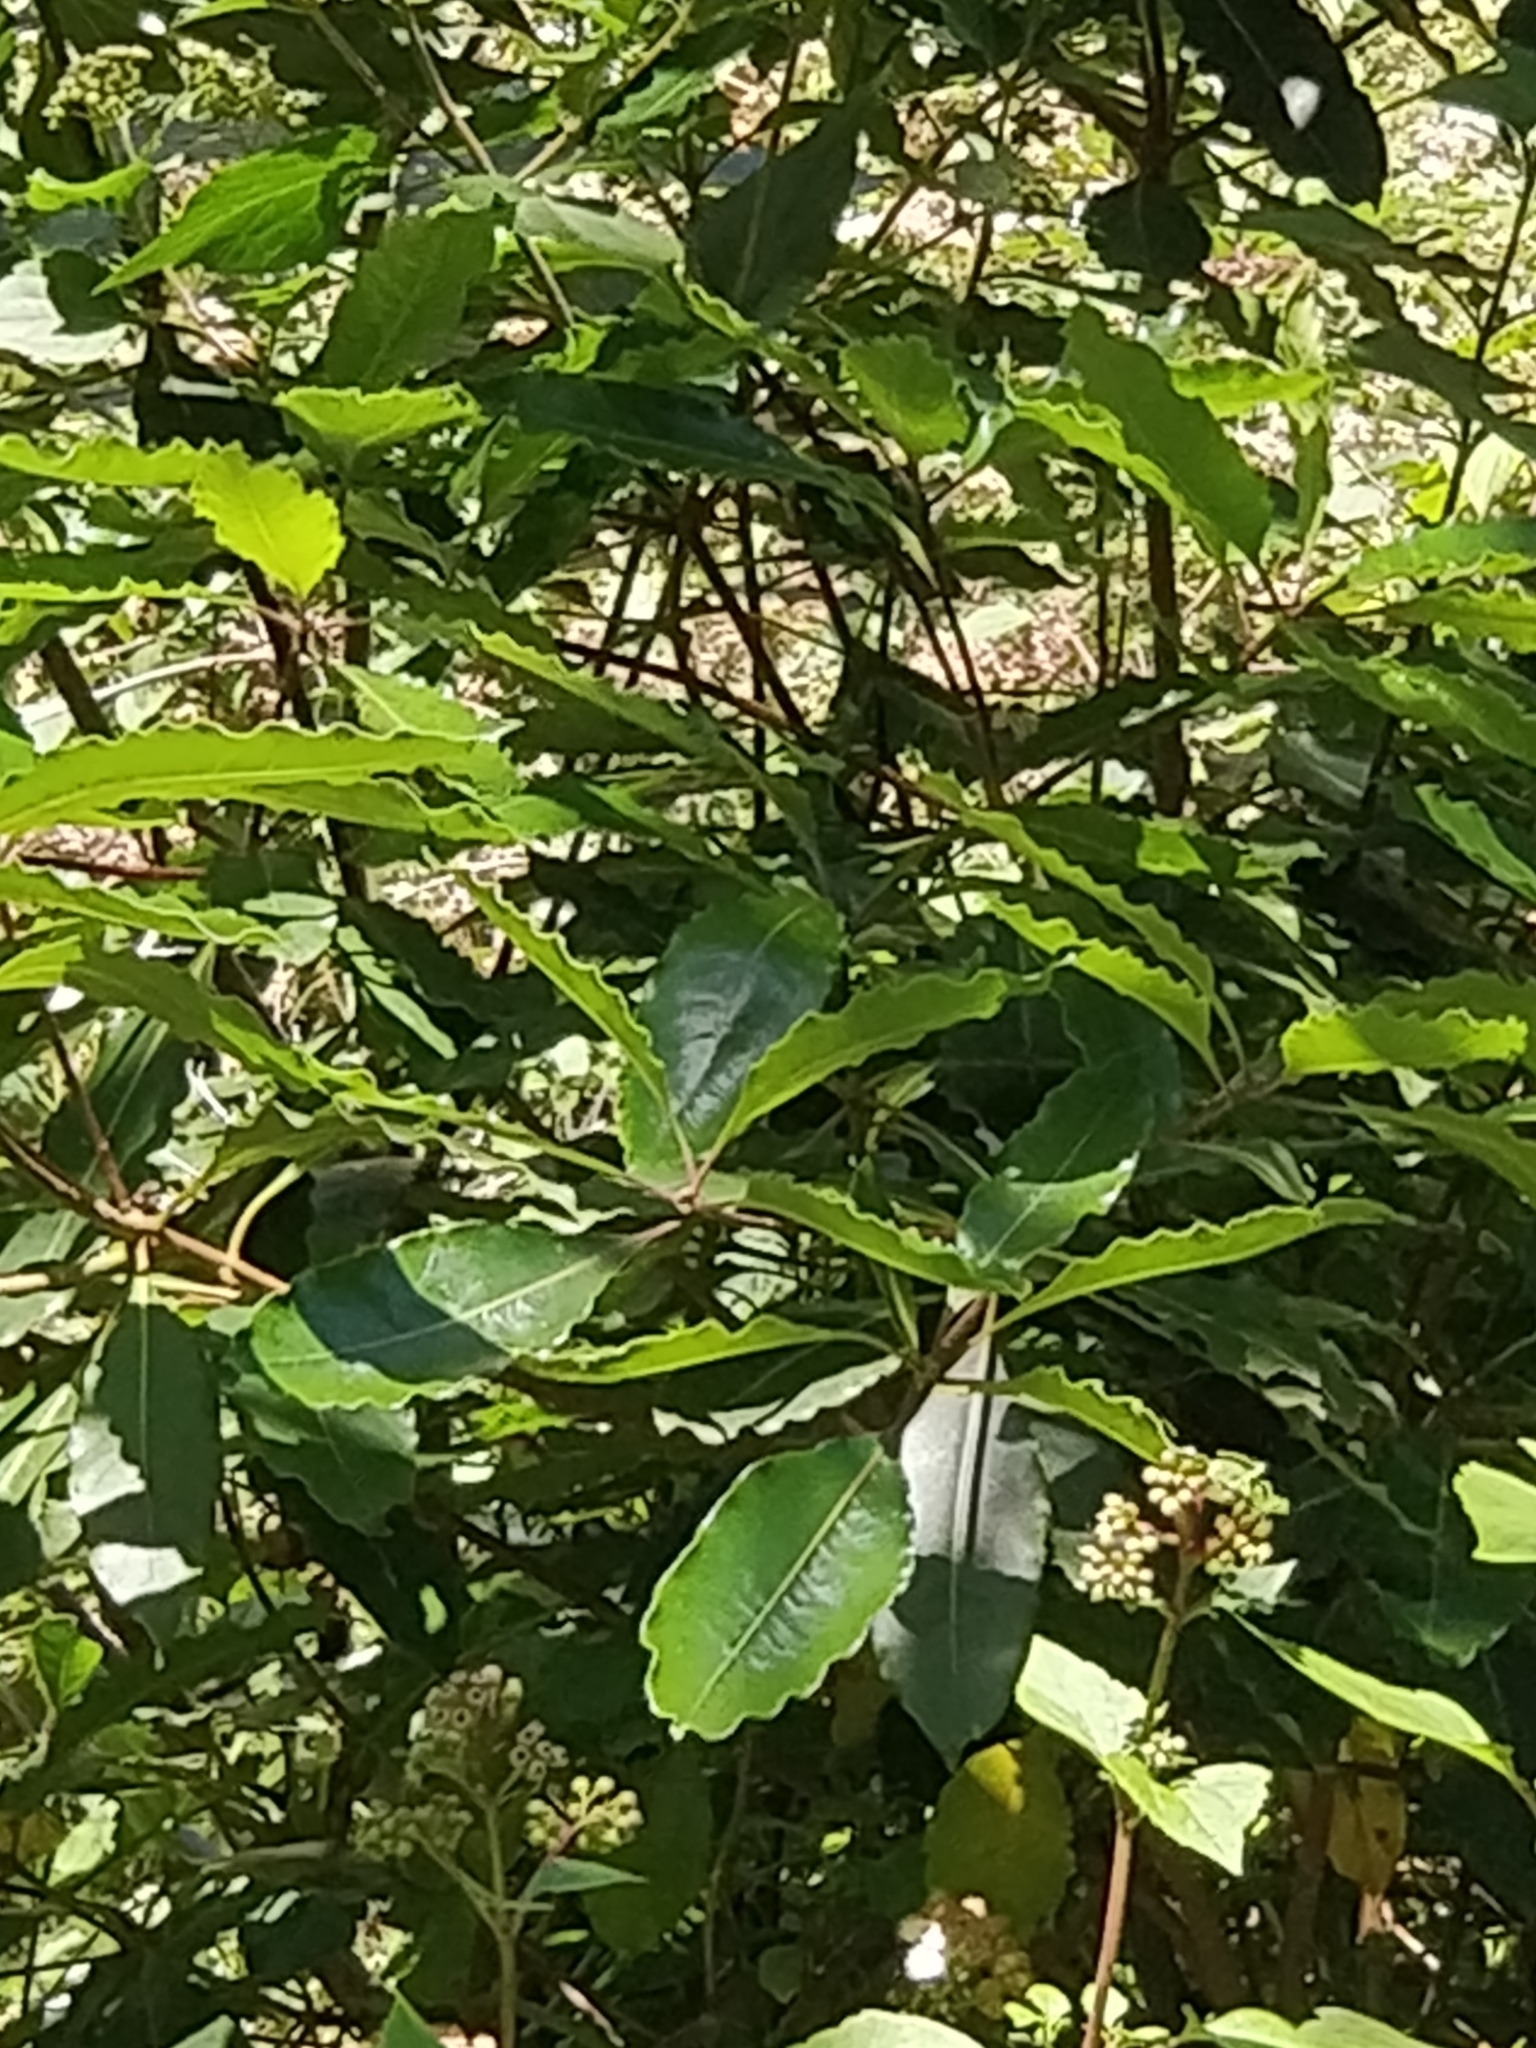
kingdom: Plantae
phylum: Tracheophyta
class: Magnoliopsida
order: Apiales
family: Pittosporaceae
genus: Pittosporum
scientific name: Pittosporum undulatum
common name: Australian cheesewood
